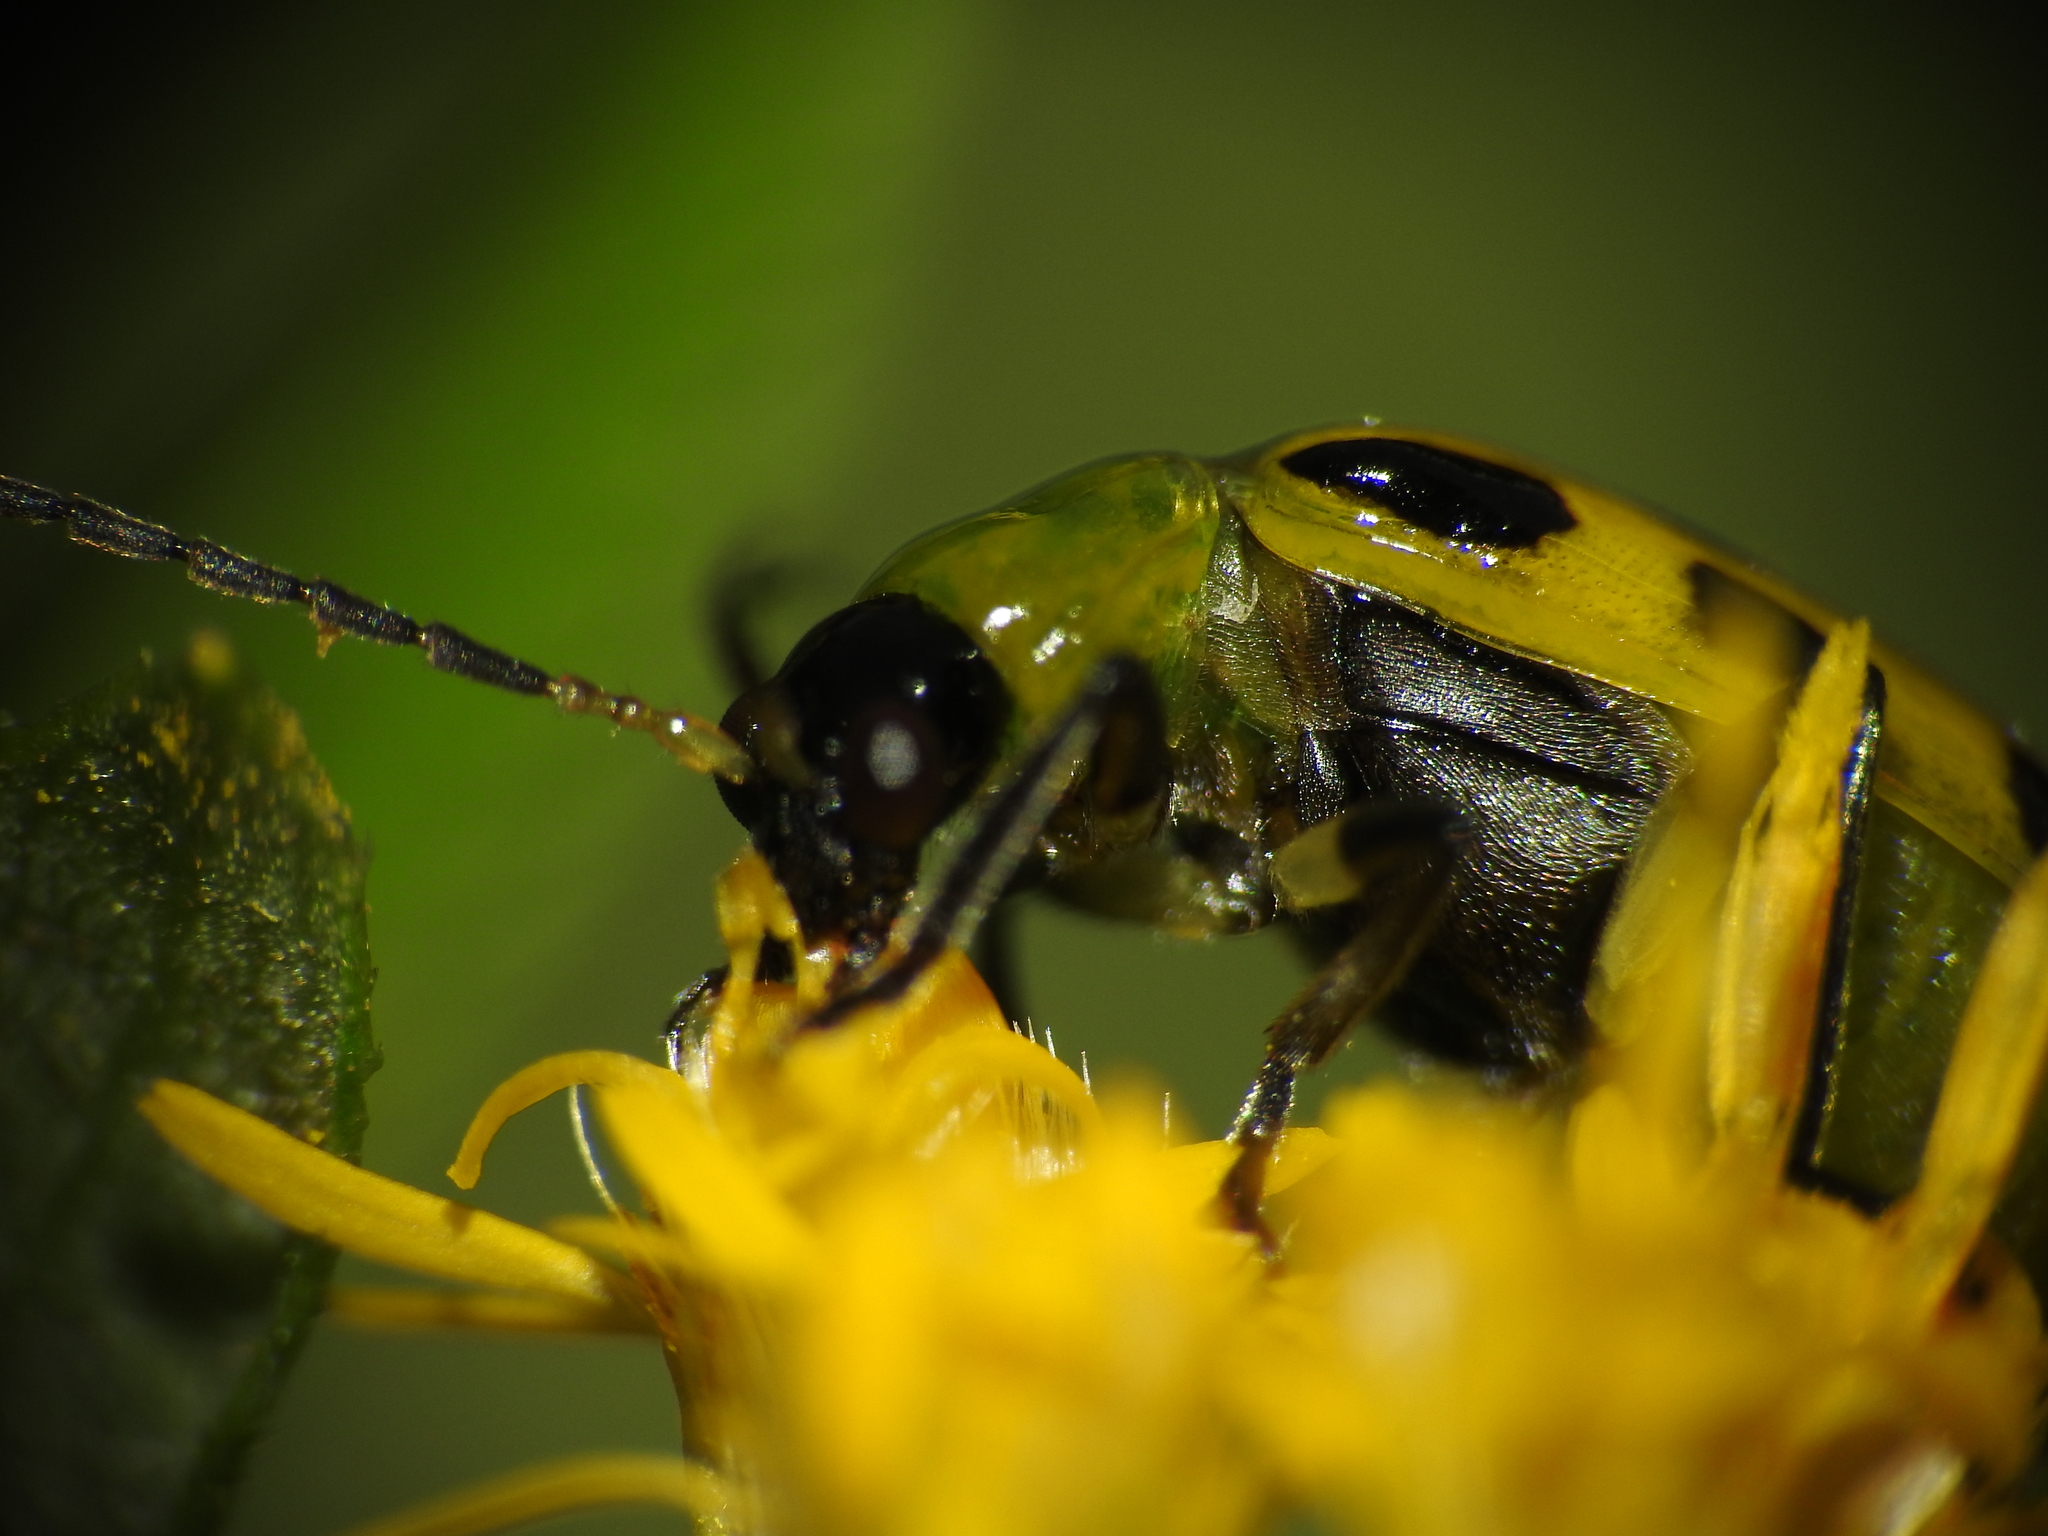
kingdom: Animalia
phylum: Arthropoda
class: Insecta
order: Coleoptera
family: Chrysomelidae
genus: Diabrotica
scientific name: Diabrotica undecimpunctata
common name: Spotted cucumber beetle
